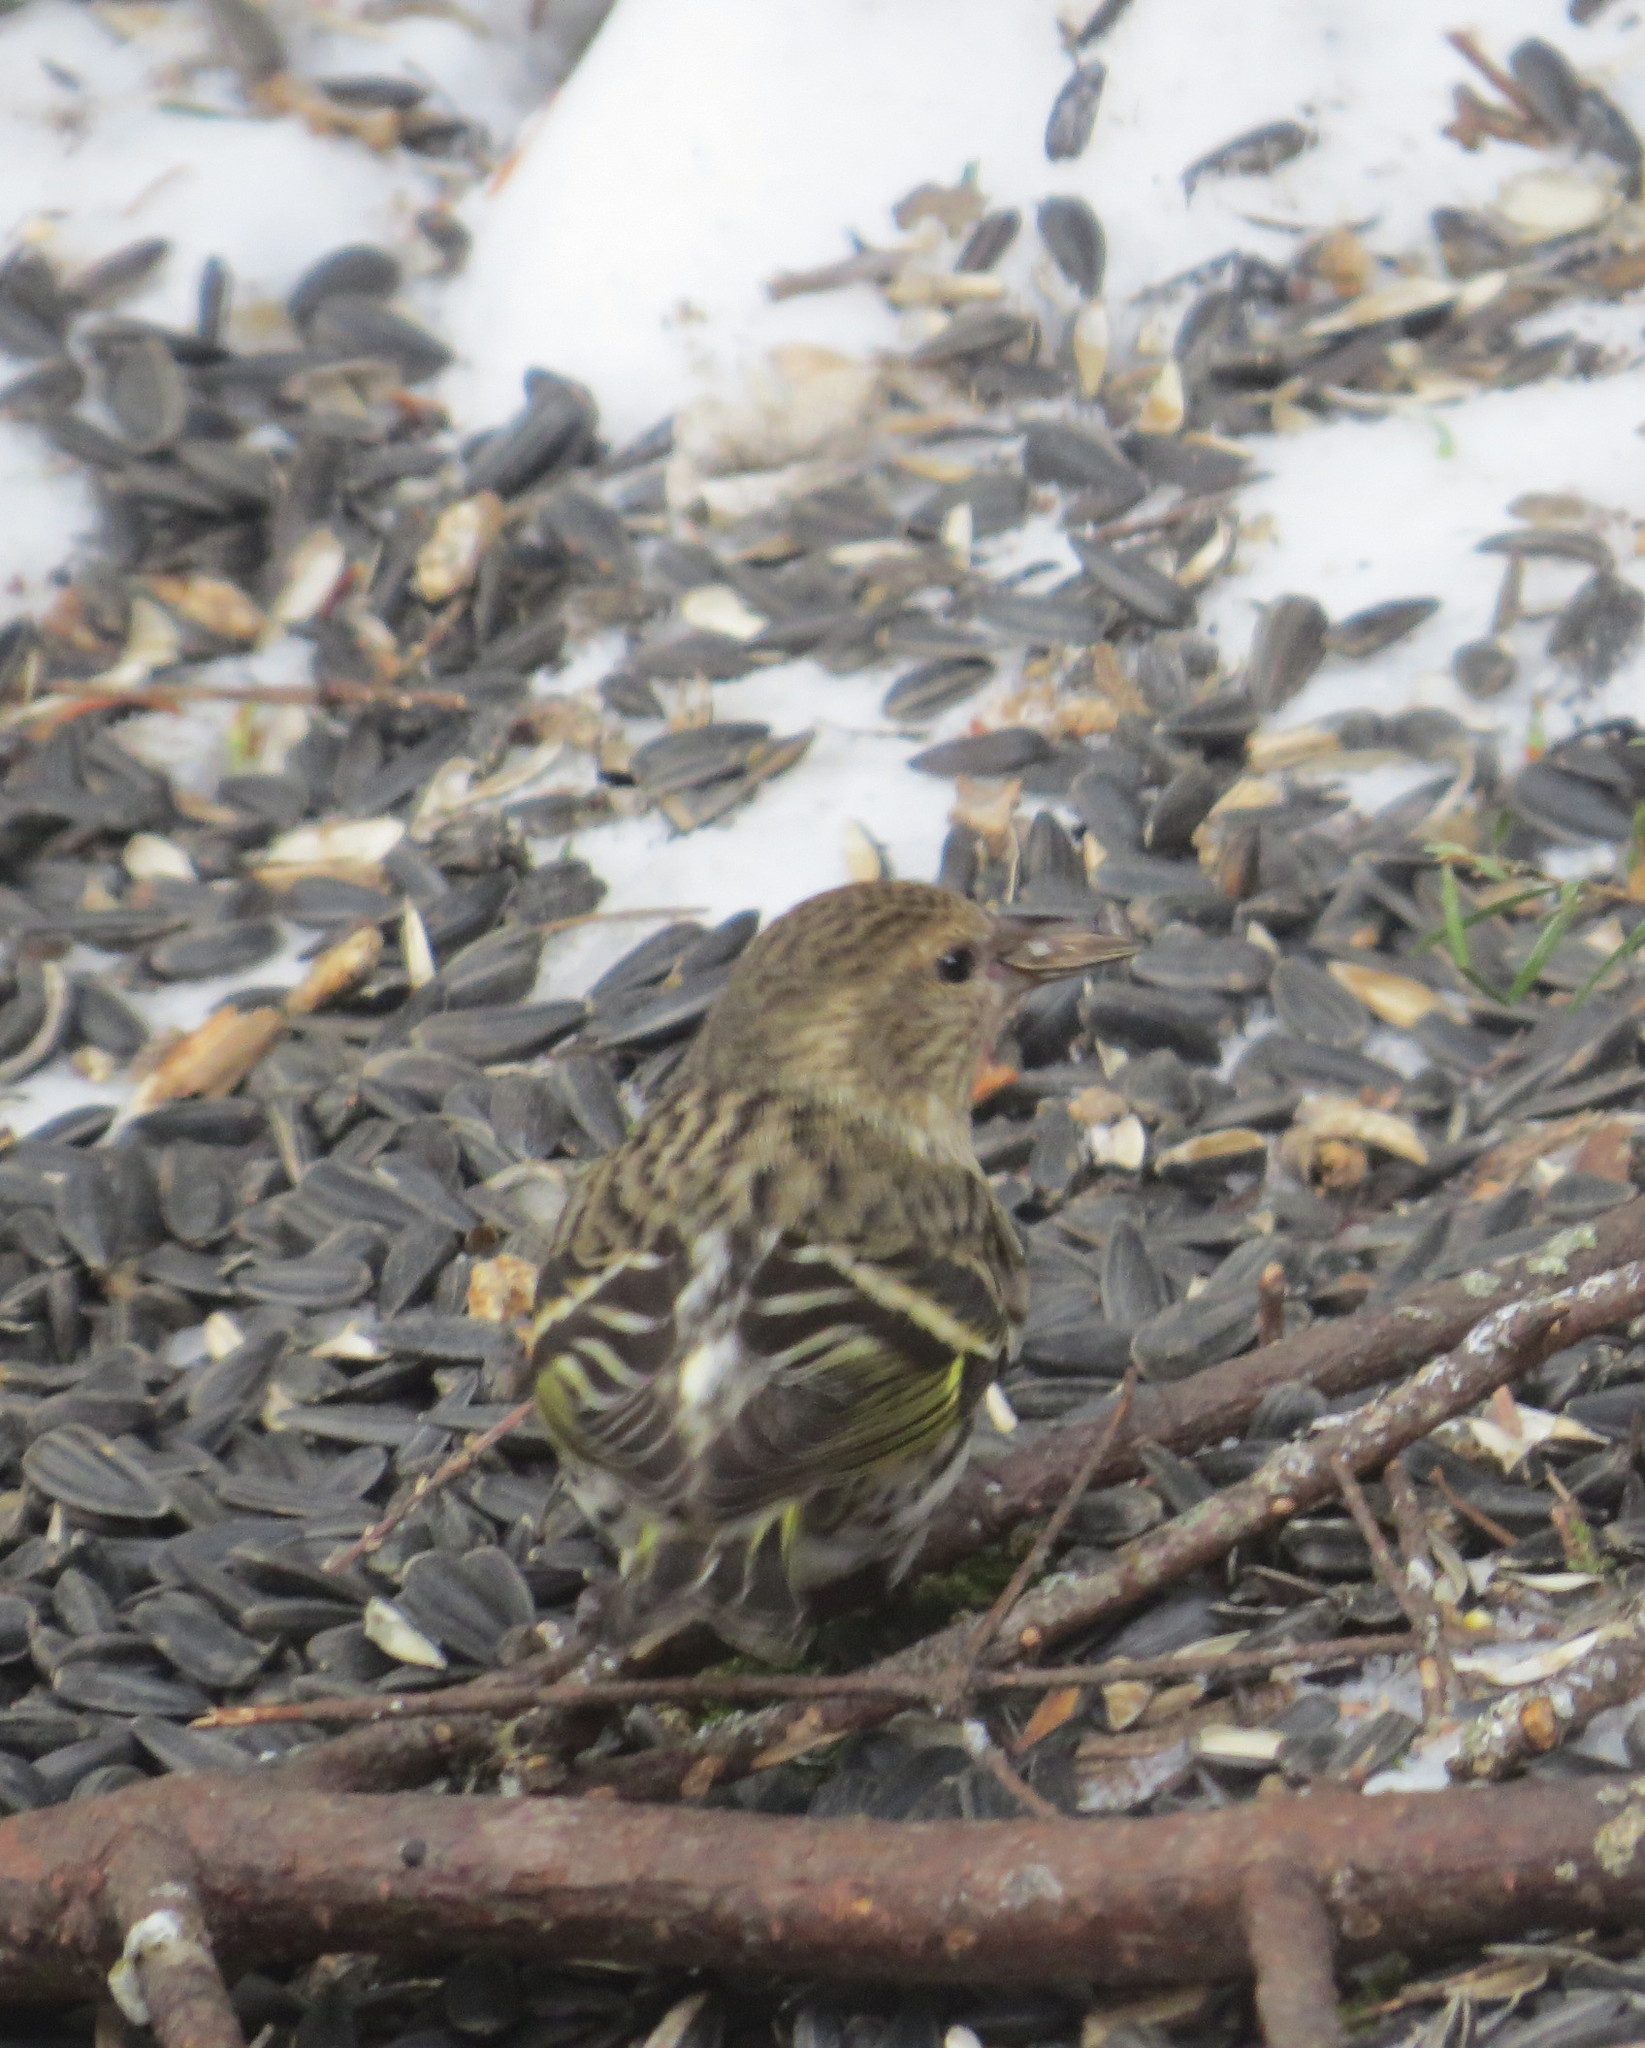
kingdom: Animalia
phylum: Chordata
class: Aves
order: Passeriformes
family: Fringillidae
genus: Spinus
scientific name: Spinus pinus
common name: Pine siskin
